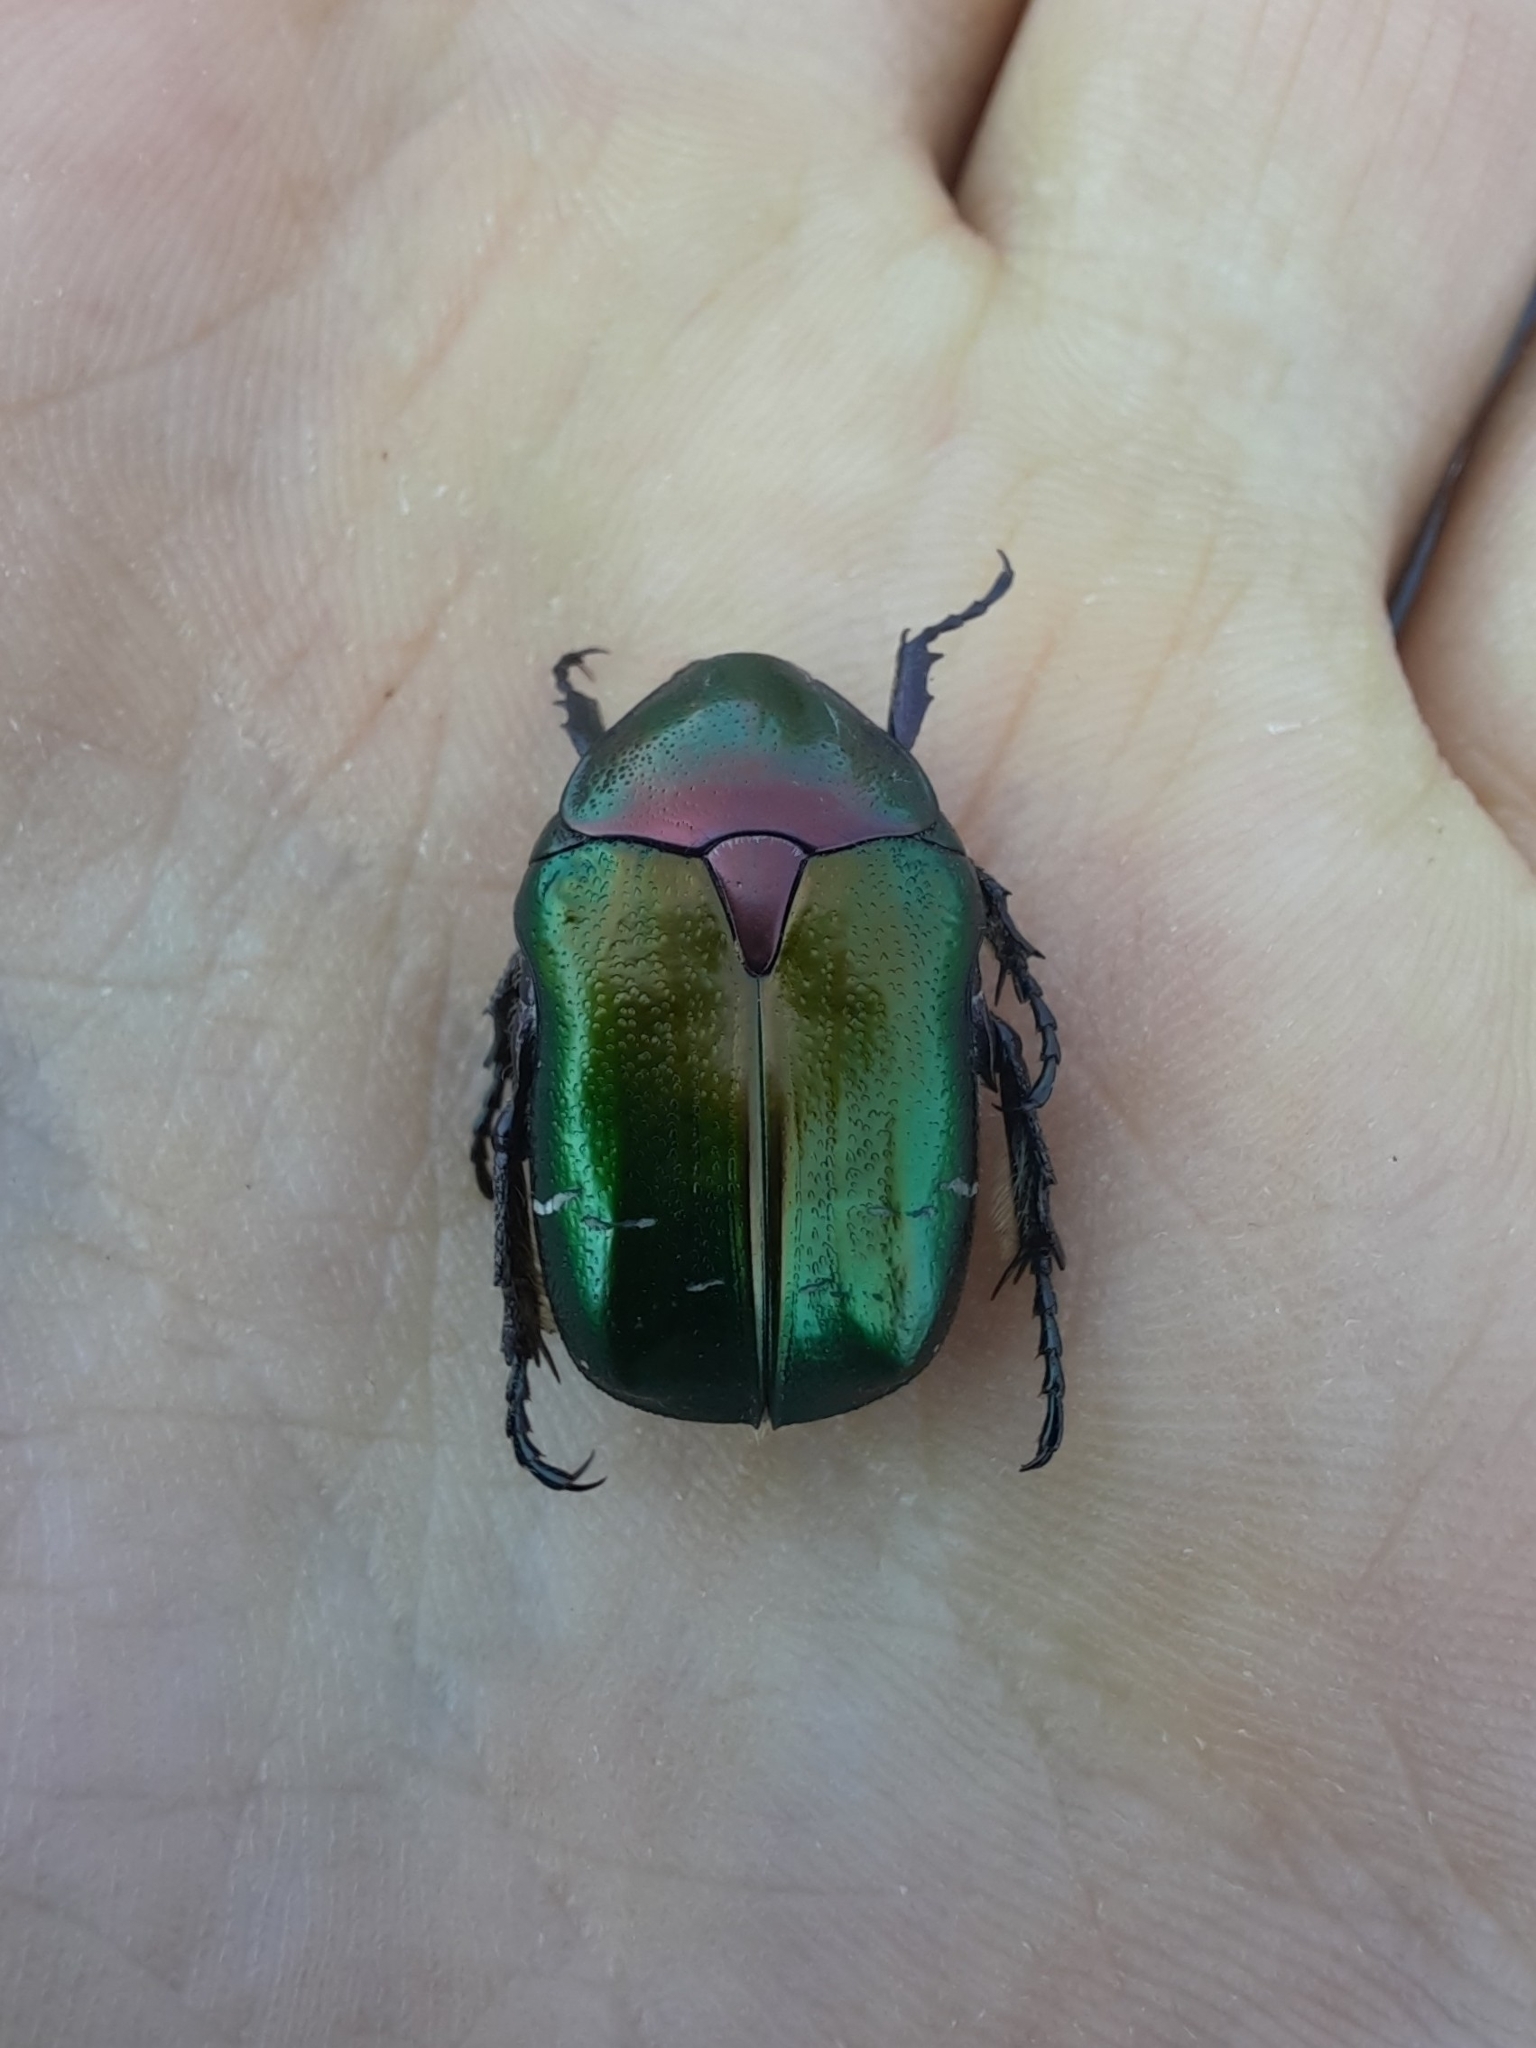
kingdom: Animalia
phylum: Arthropoda
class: Insecta
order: Coleoptera
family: Scarabaeidae
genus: Cetonia
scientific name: Cetonia aurata
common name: Rose chafer
